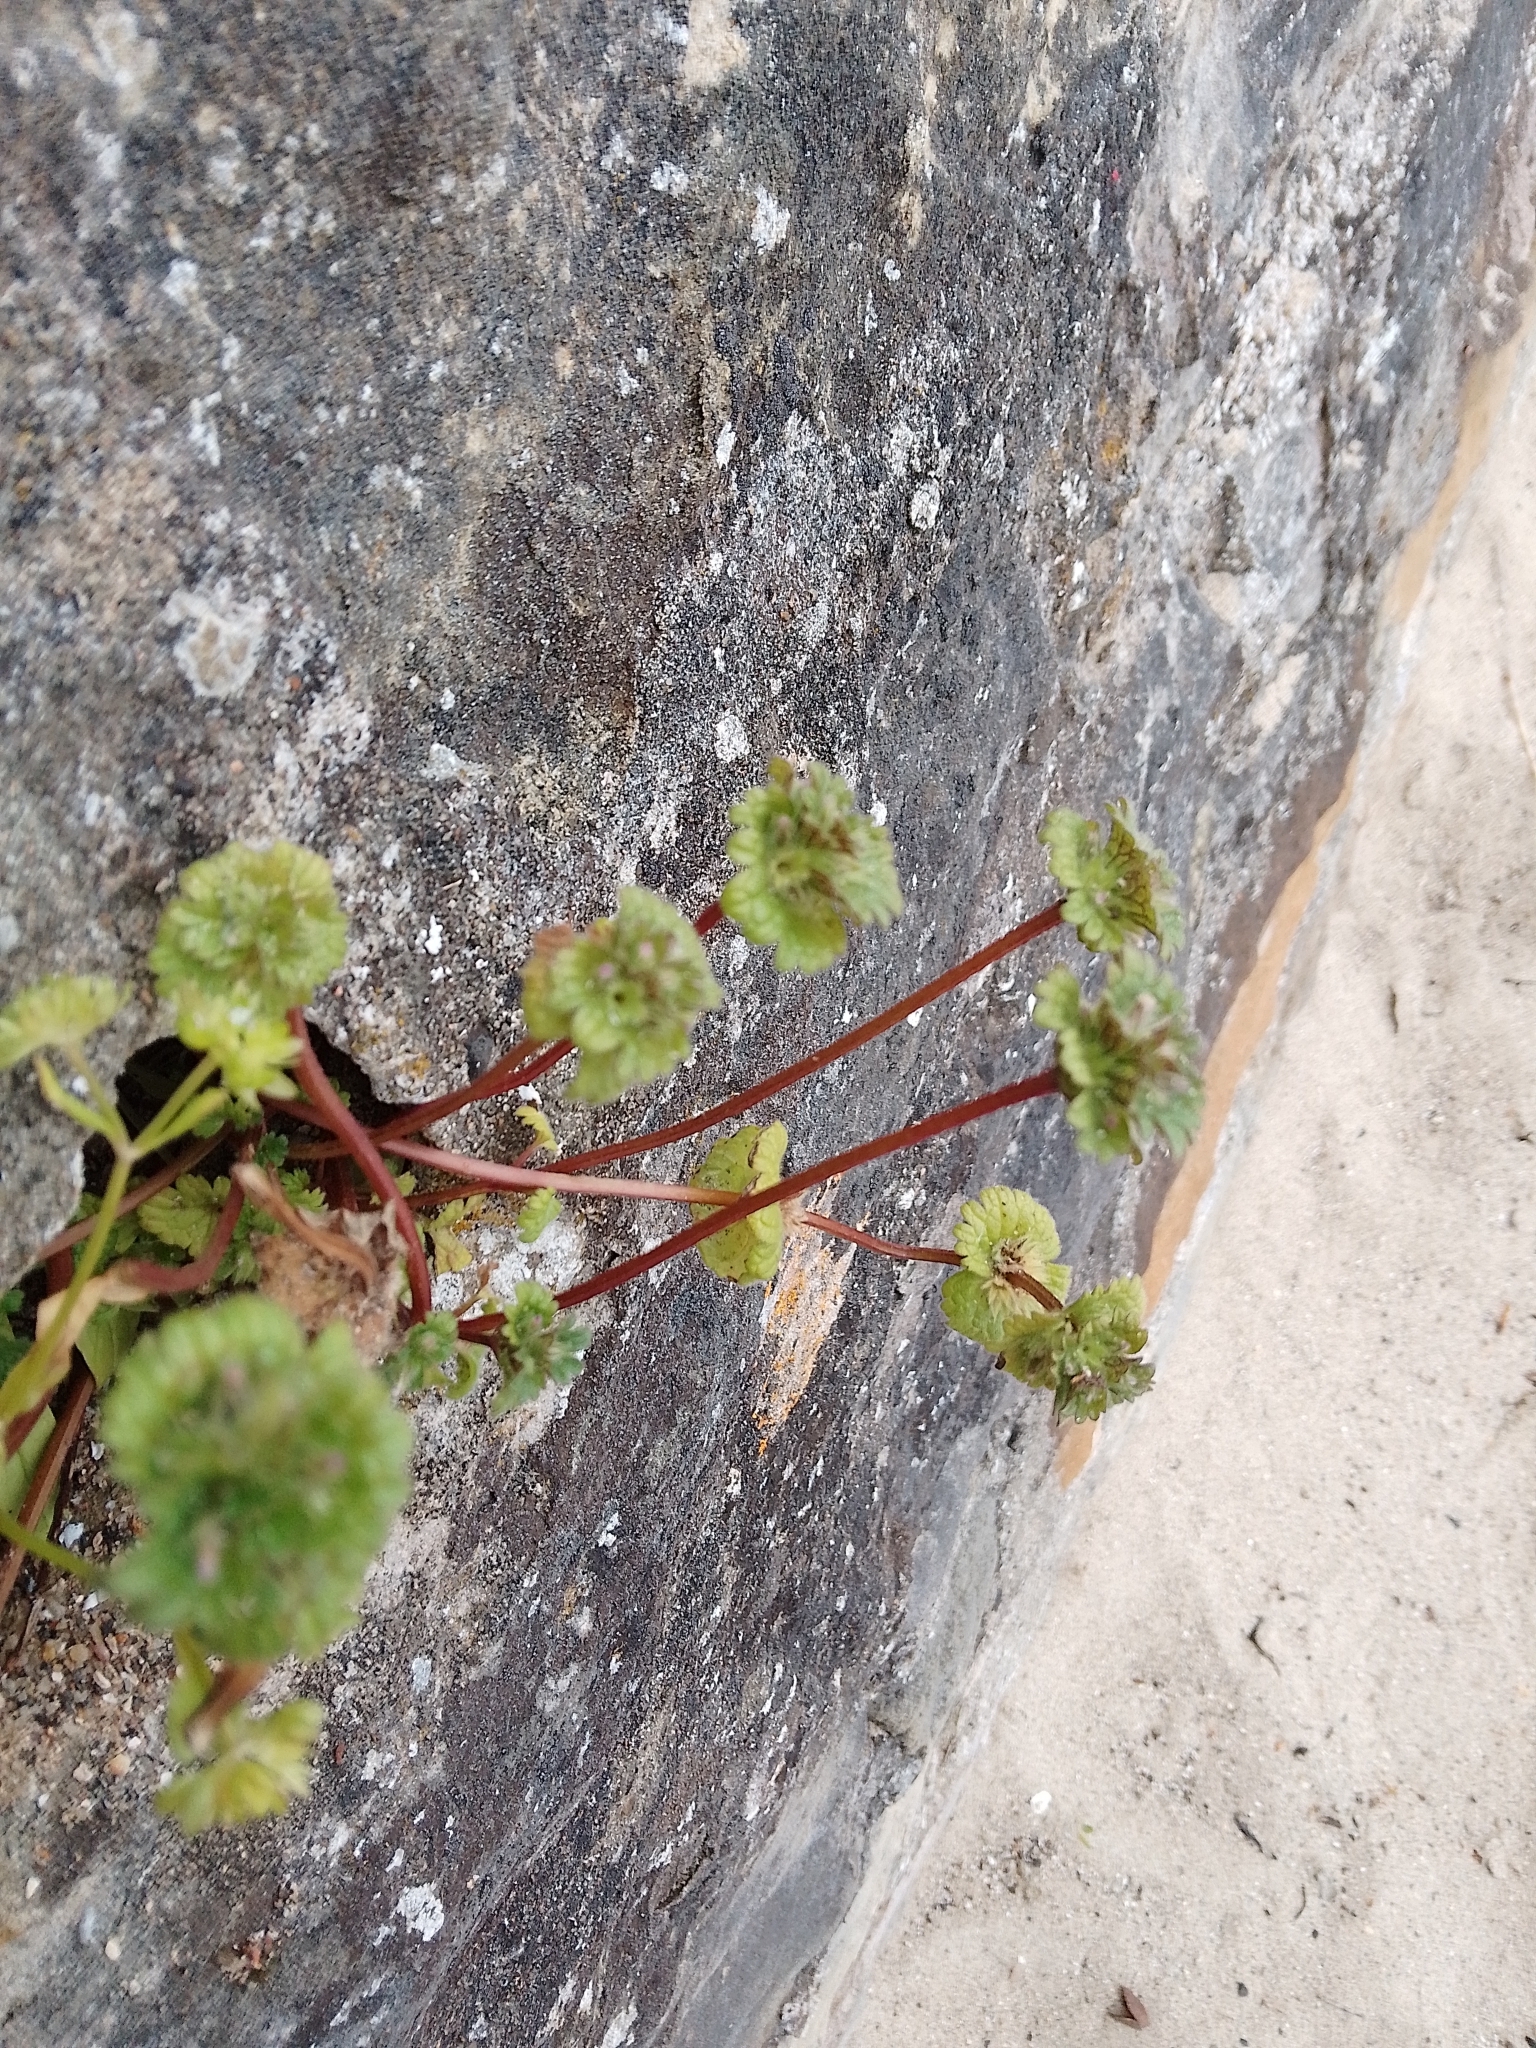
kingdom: Plantae
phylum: Tracheophyta
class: Magnoliopsida
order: Lamiales
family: Lamiaceae
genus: Lamium
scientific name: Lamium amplexicaule
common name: Henbit dead-nettle
